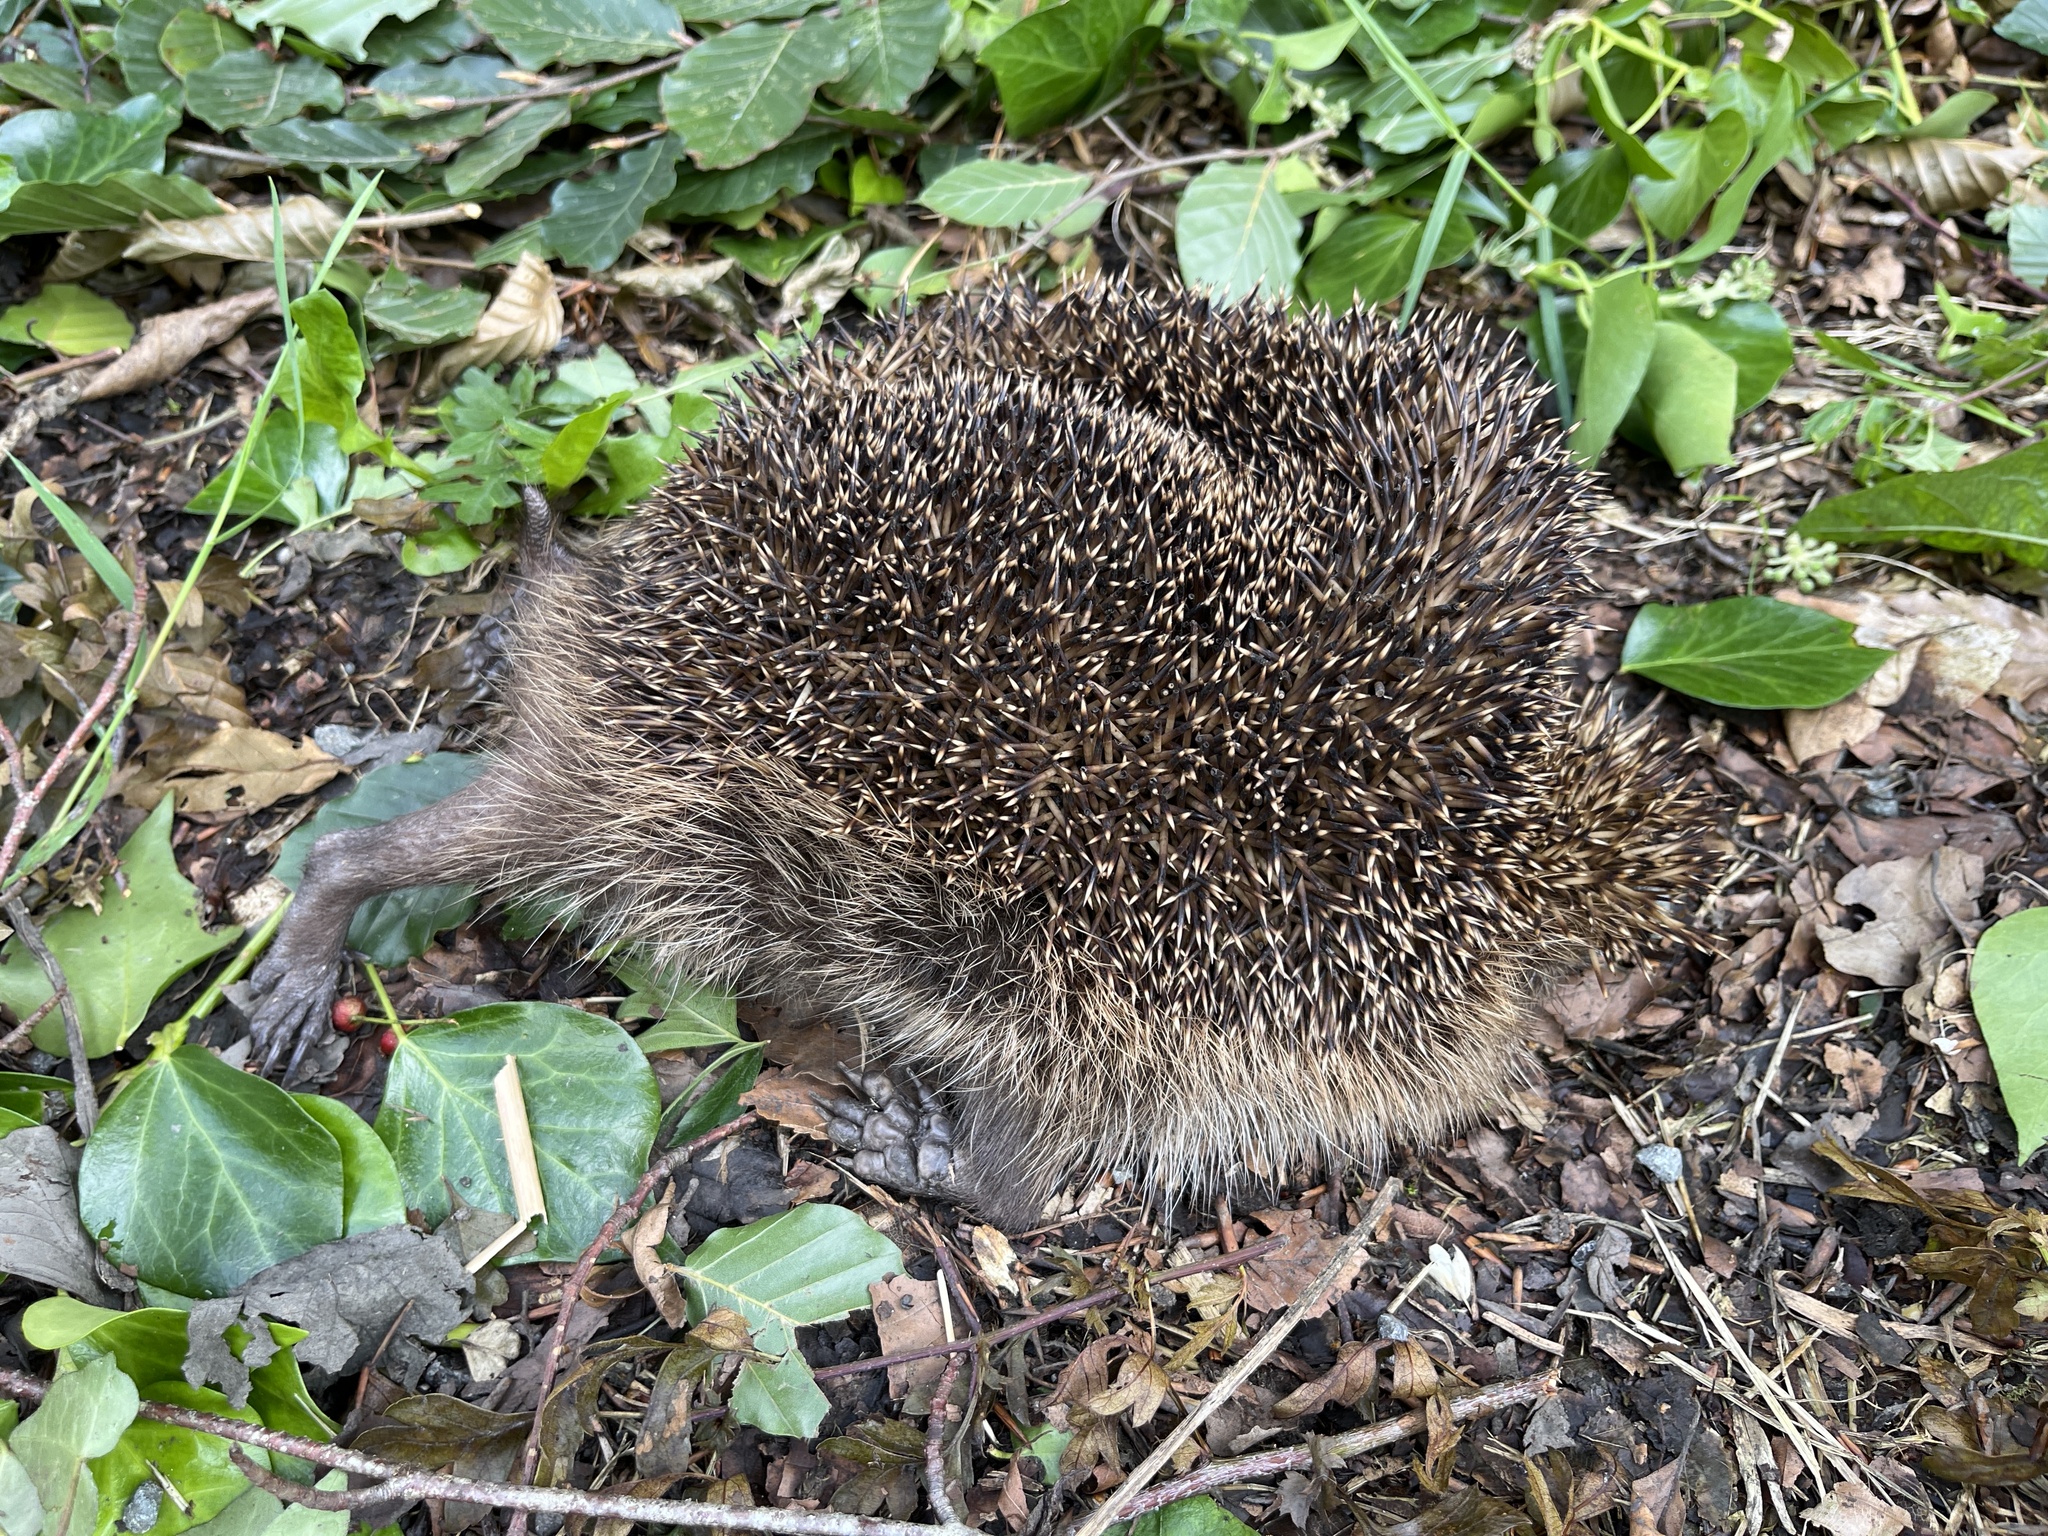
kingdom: Animalia
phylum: Chordata
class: Mammalia
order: Erinaceomorpha
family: Erinaceidae
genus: Erinaceus
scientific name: Erinaceus europaeus
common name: West european hedgehog
